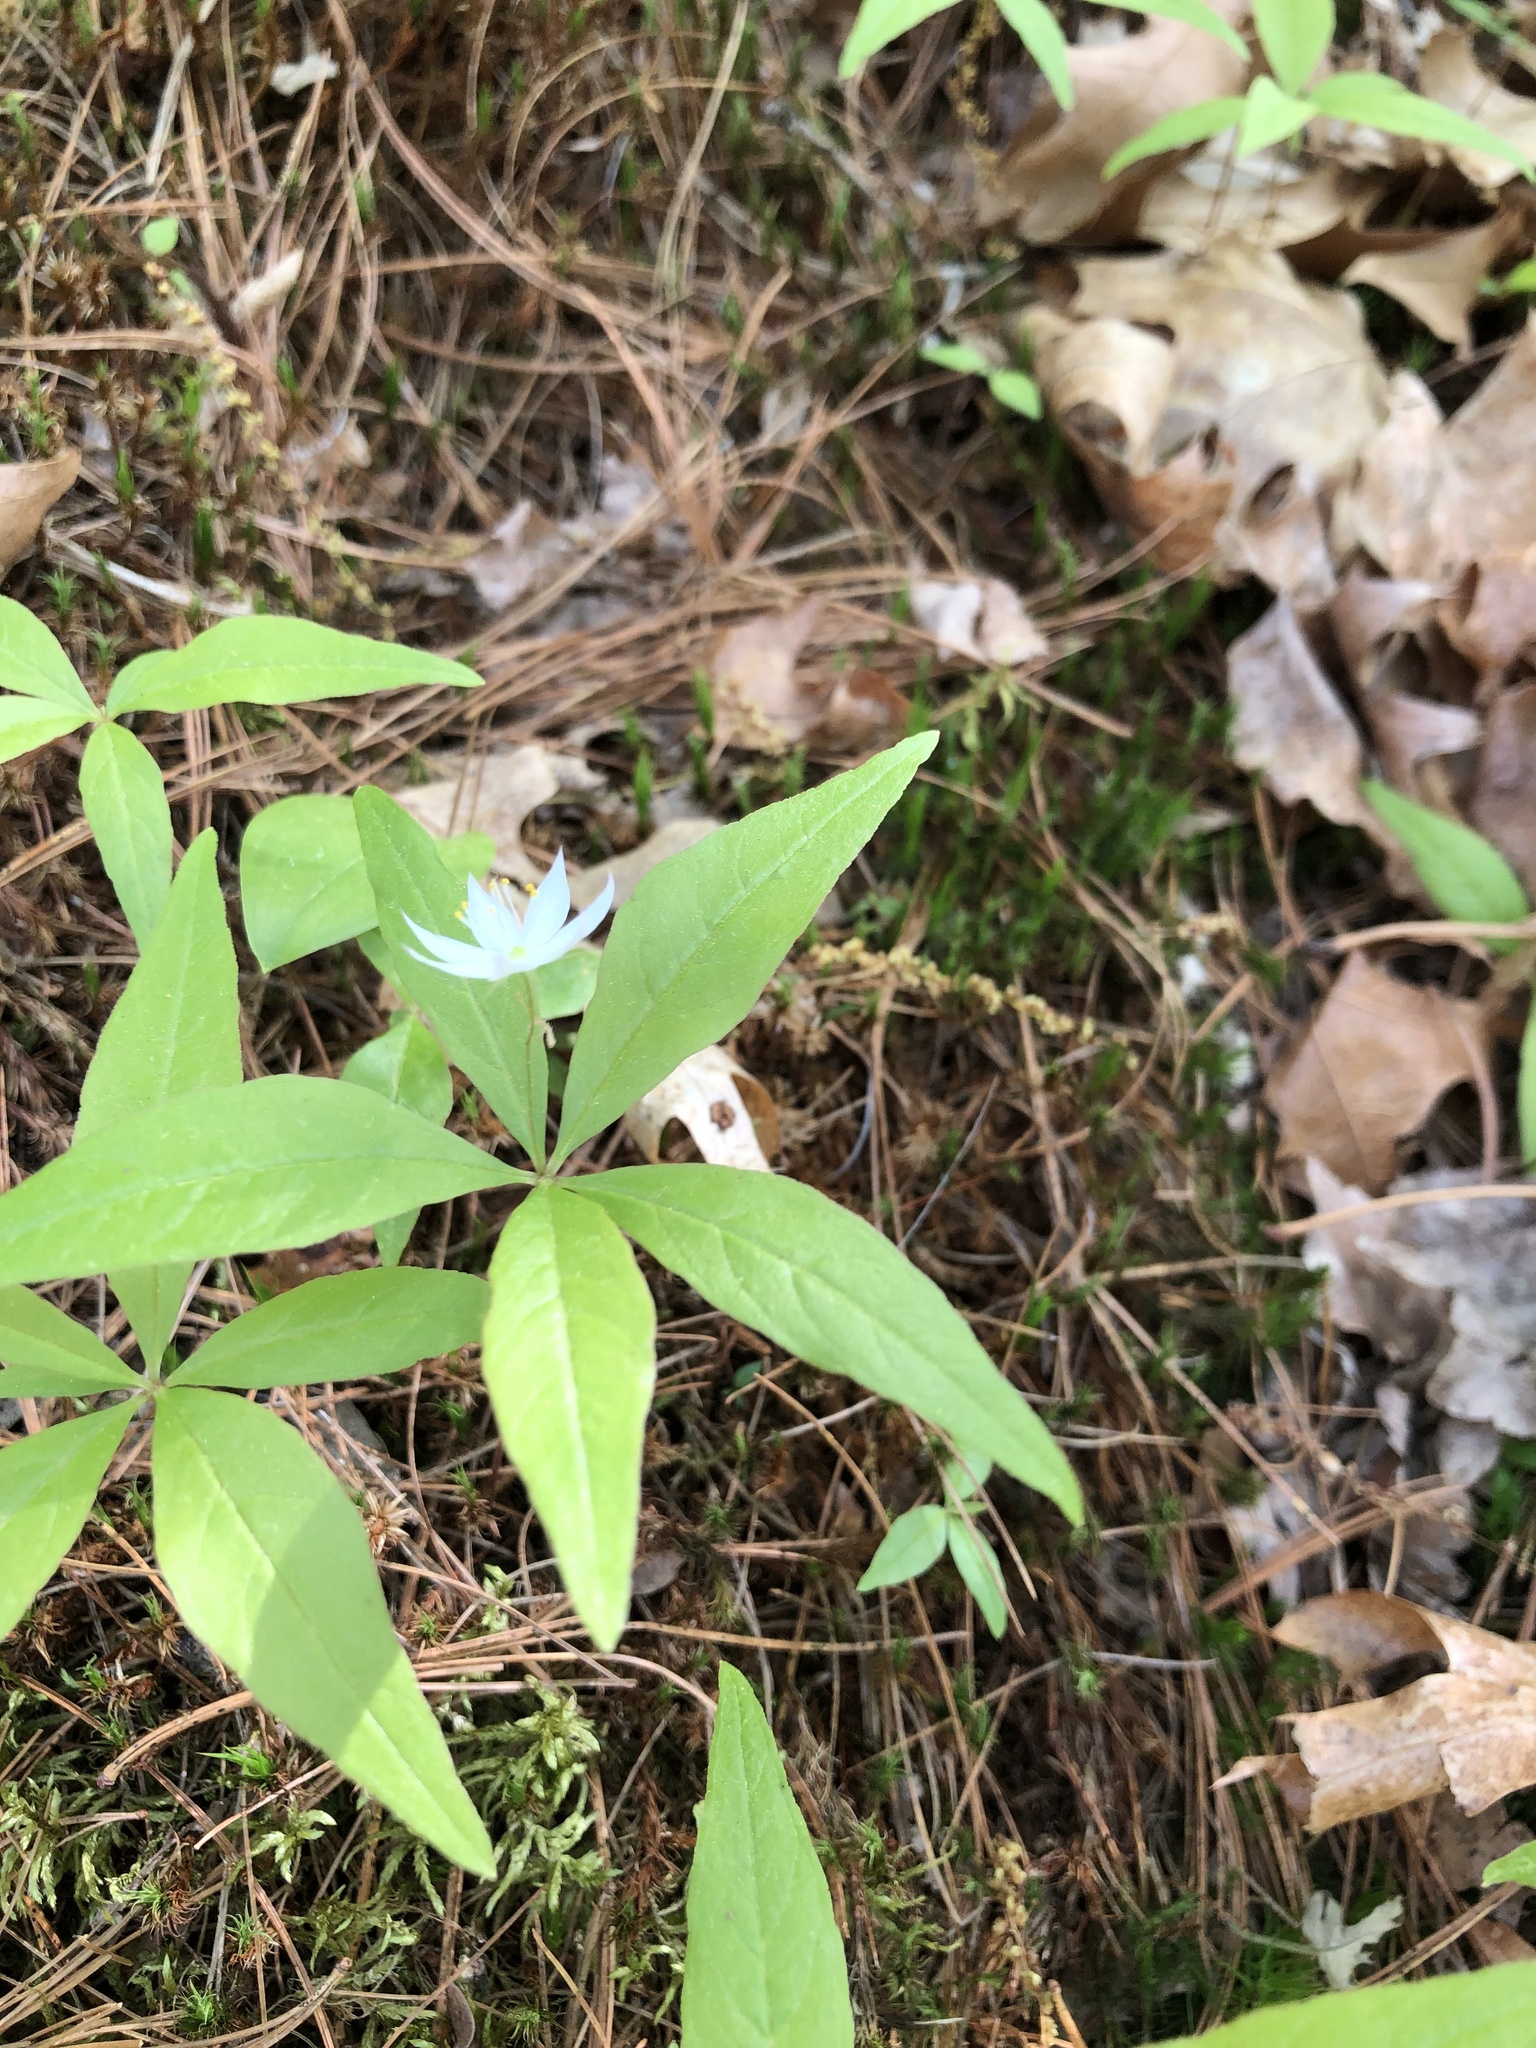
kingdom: Plantae
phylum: Tracheophyta
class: Magnoliopsida
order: Ericales
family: Primulaceae
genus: Lysimachia
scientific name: Lysimachia borealis
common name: American starflower
